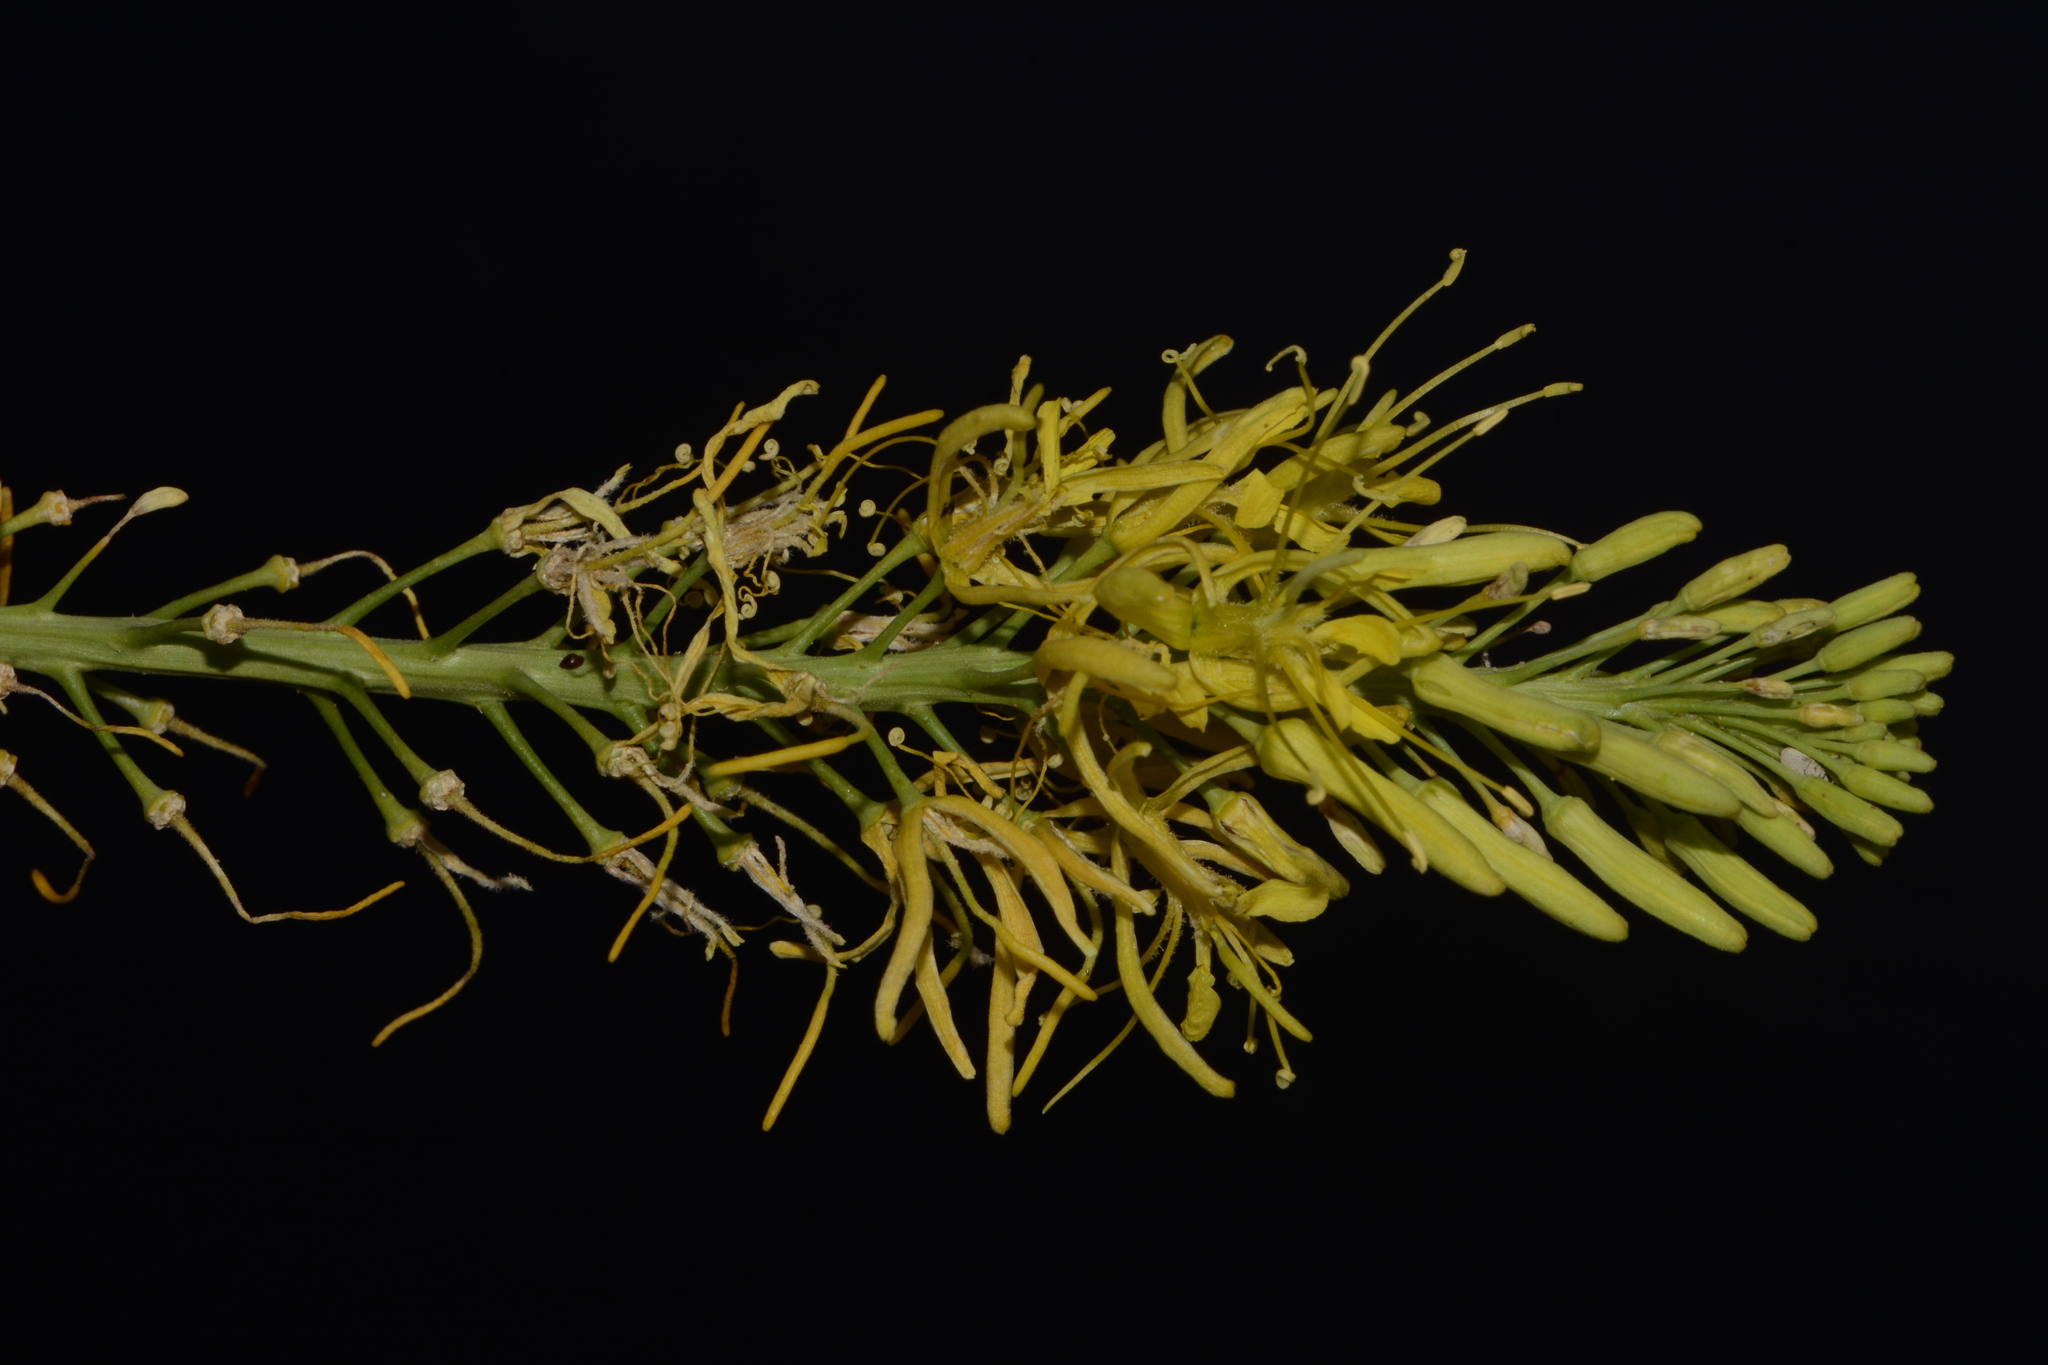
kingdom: Plantae
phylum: Tracheophyta
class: Magnoliopsida
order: Brassicales
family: Brassicaceae
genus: Stanleya
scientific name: Stanleya pinnata
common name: Prince's-plume
